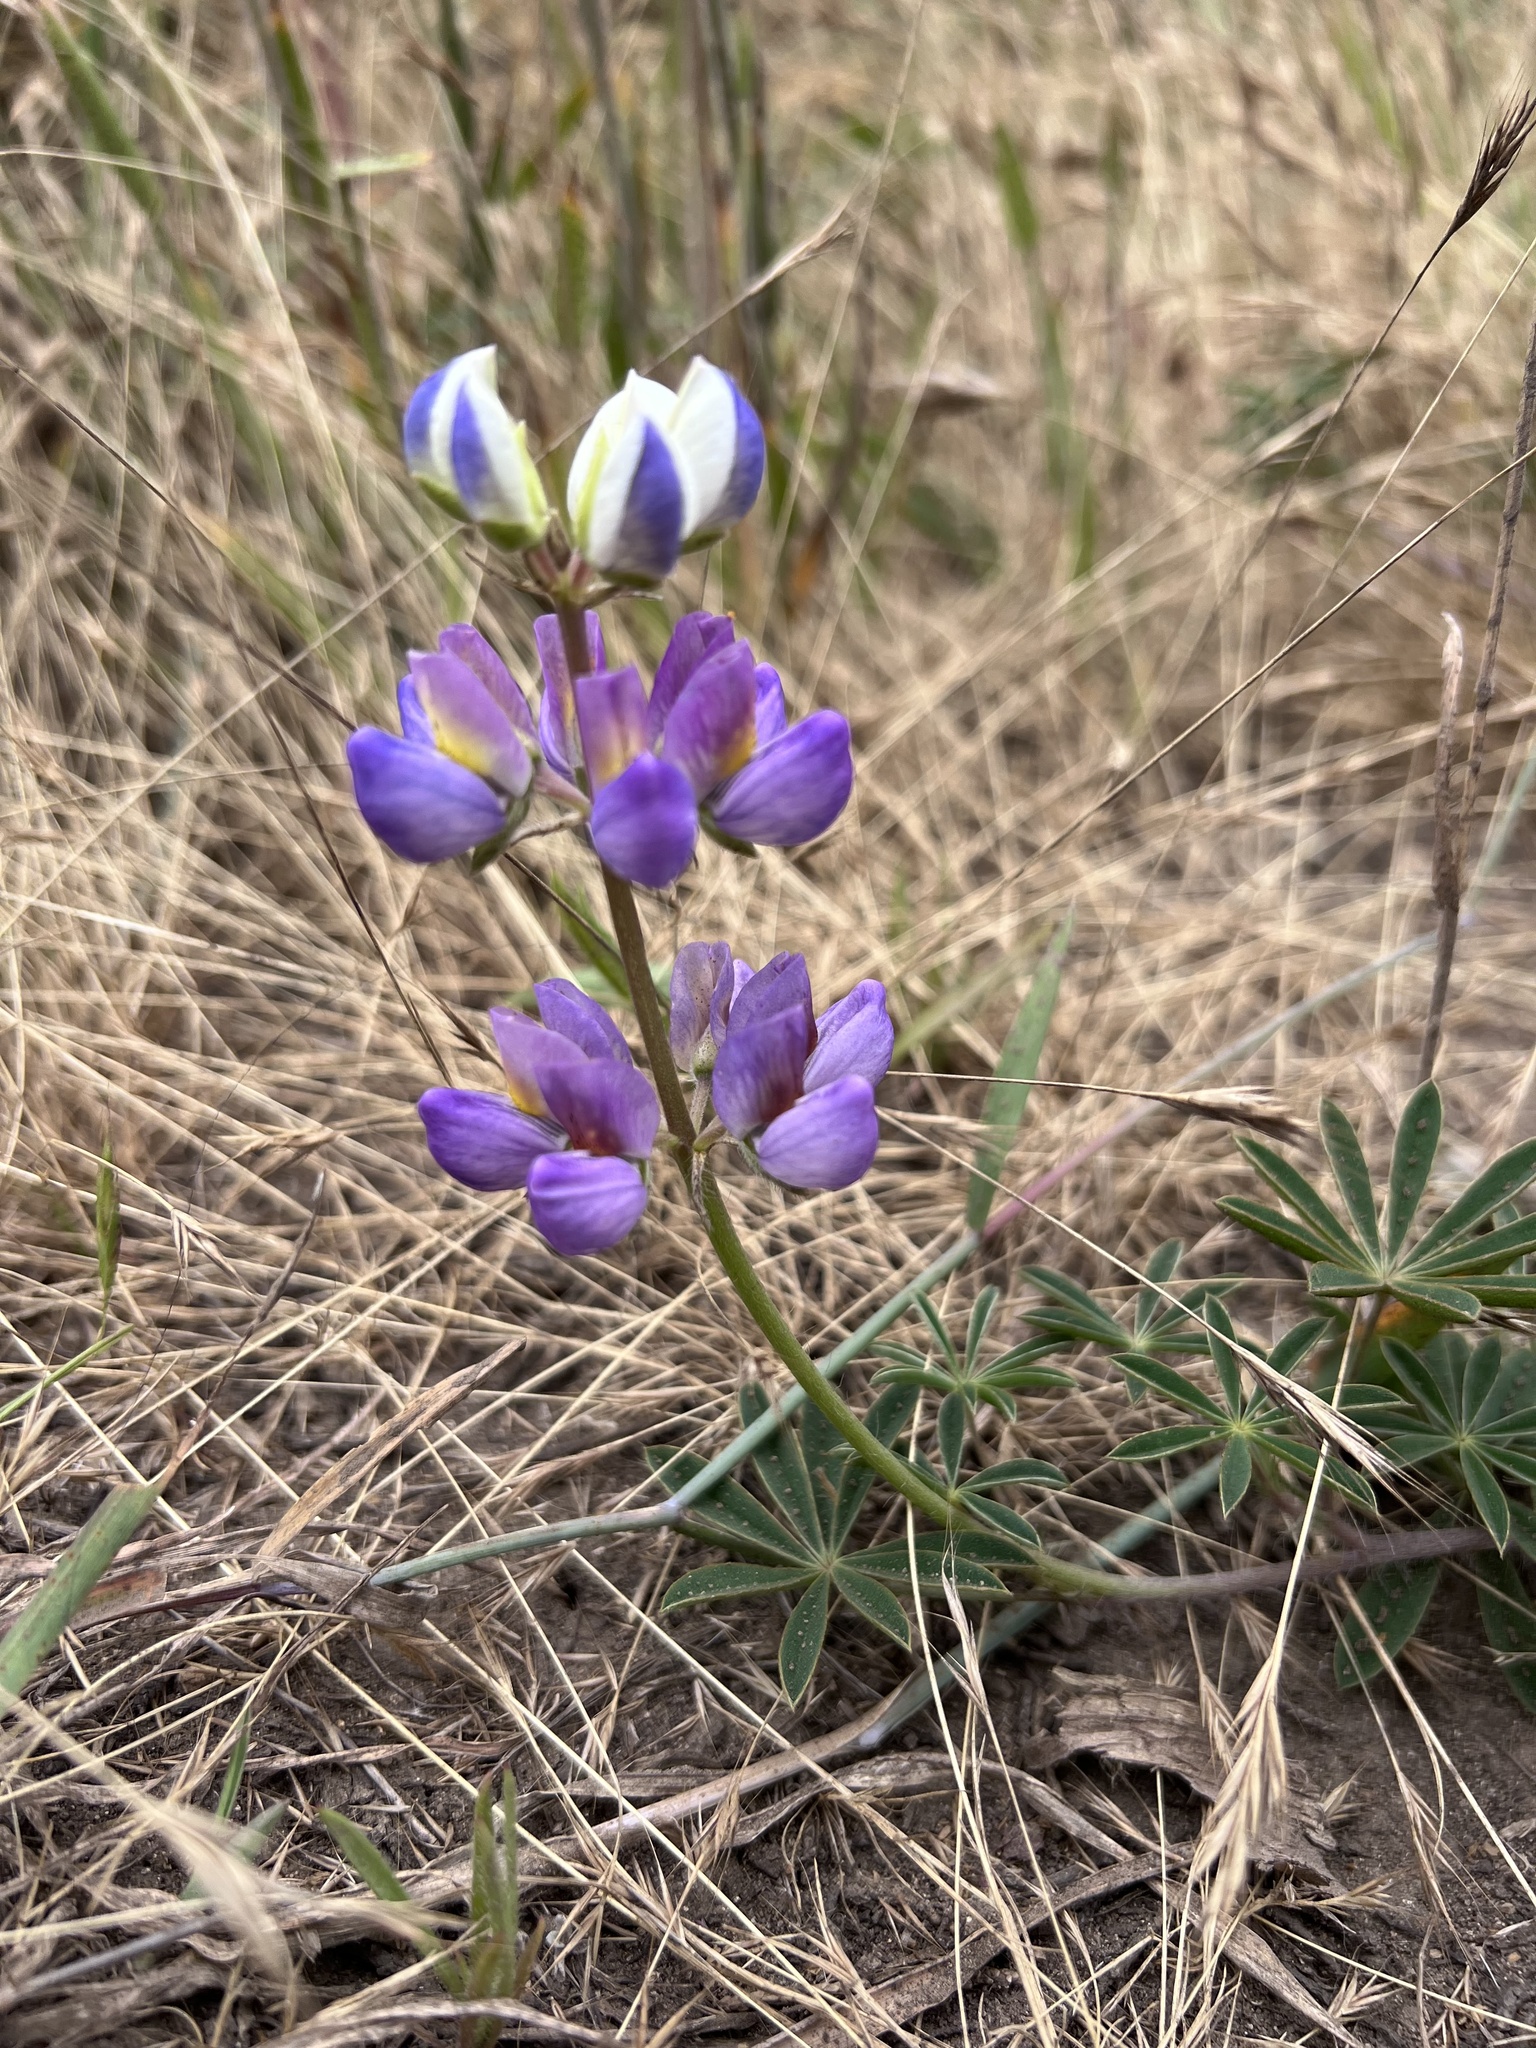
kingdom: Plantae
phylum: Tracheophyta
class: Magnoliopsida
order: Fabales
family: Fabaceae
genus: Lupinus
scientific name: Lupinus variicolor
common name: Lindley's varied lupine
